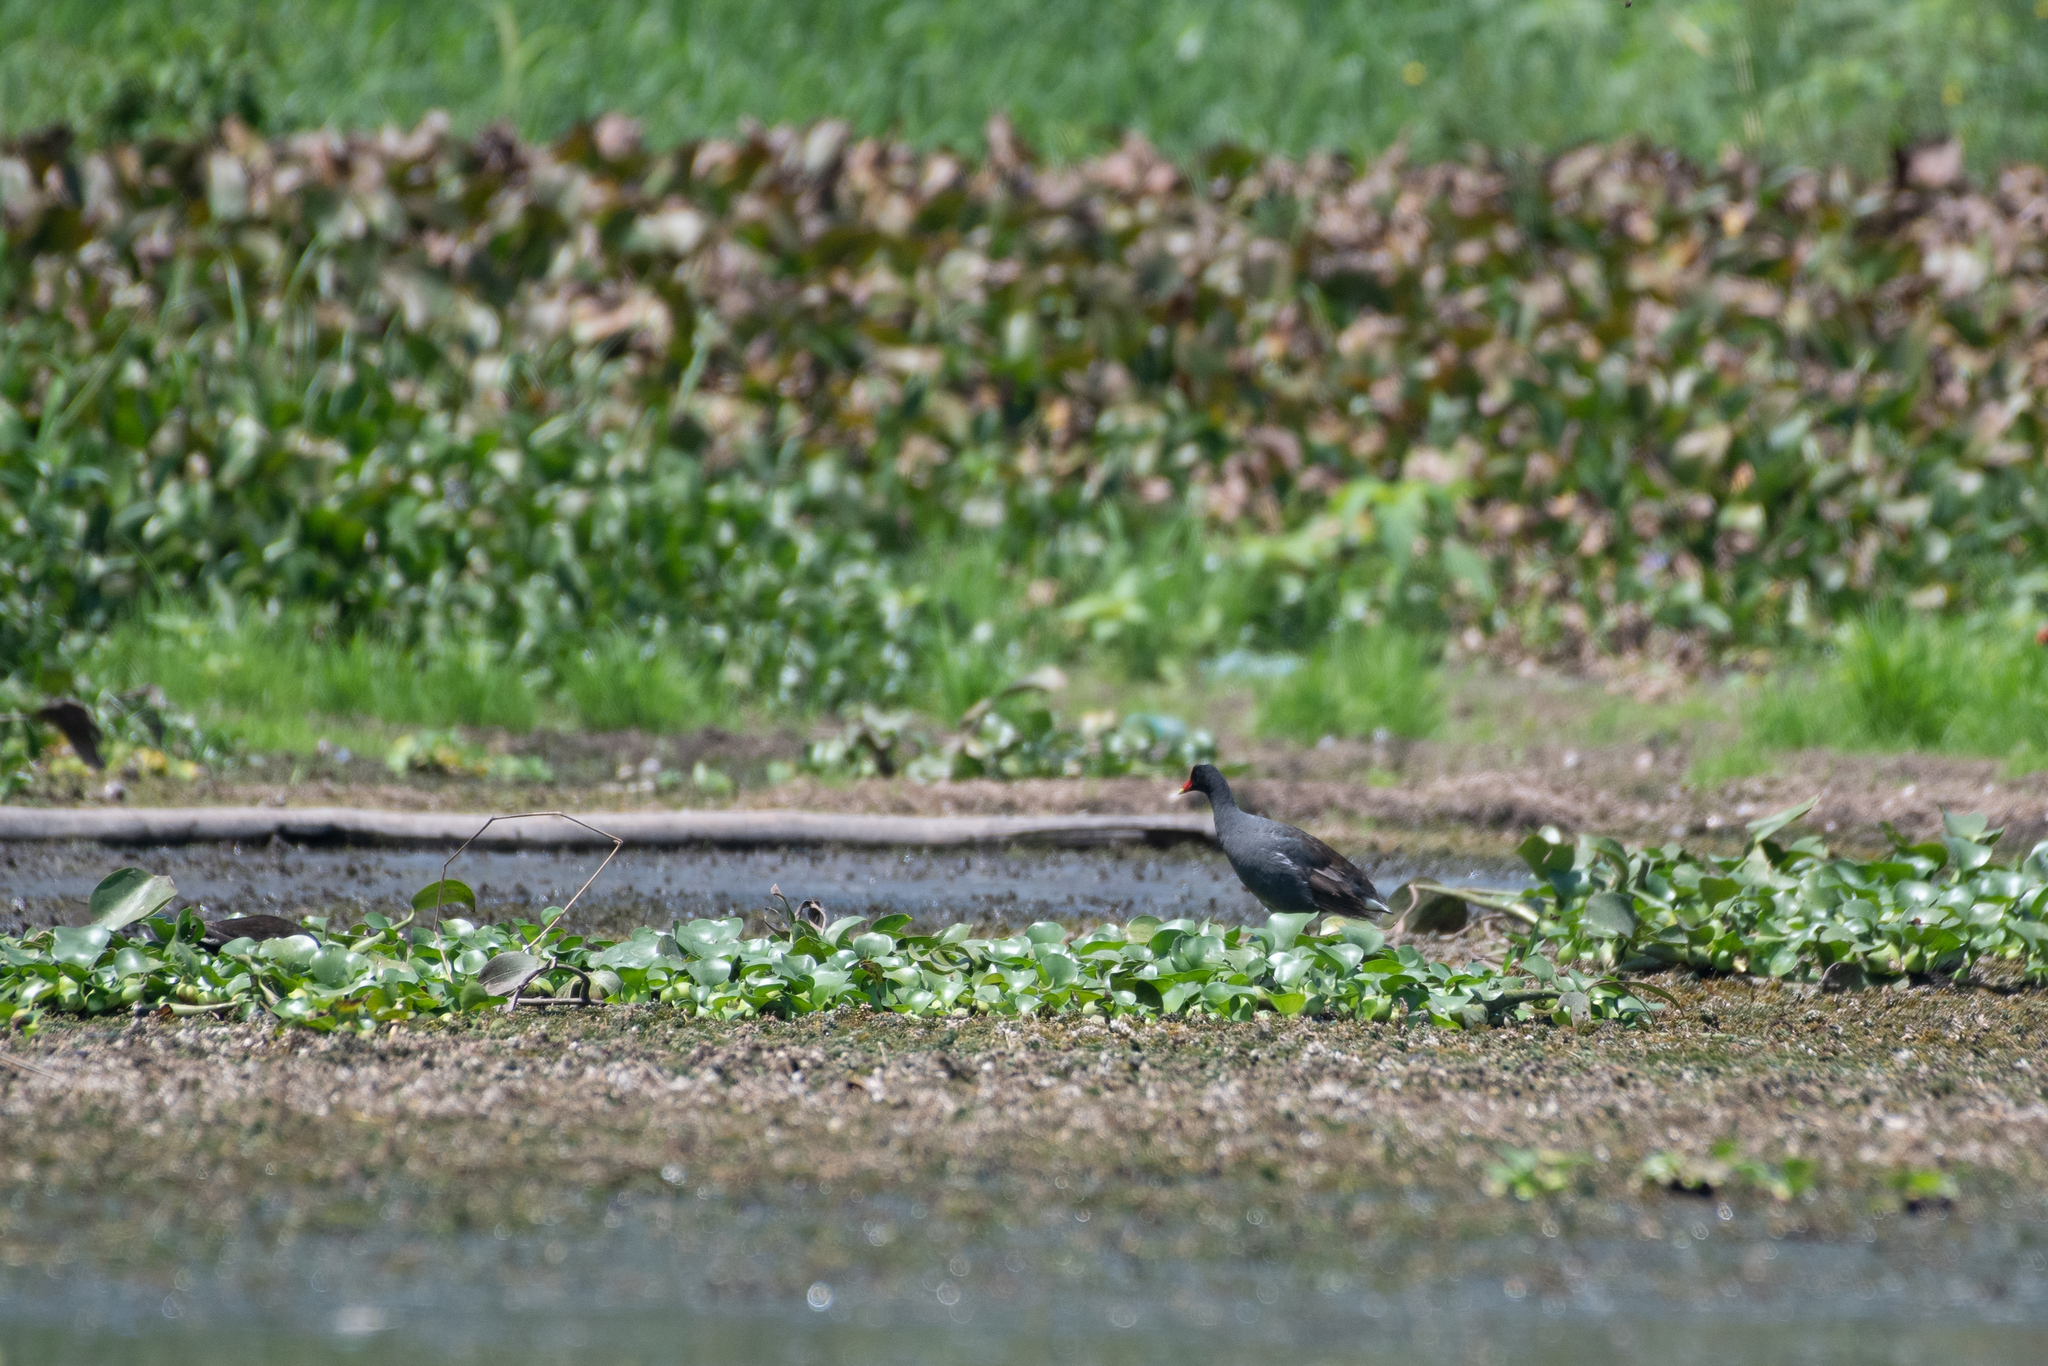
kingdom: Animalia
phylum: Chordata
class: Aves
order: Gruiformes
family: Rallidae
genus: Gallinula
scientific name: Gallinula chloropus
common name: Common moorhen
